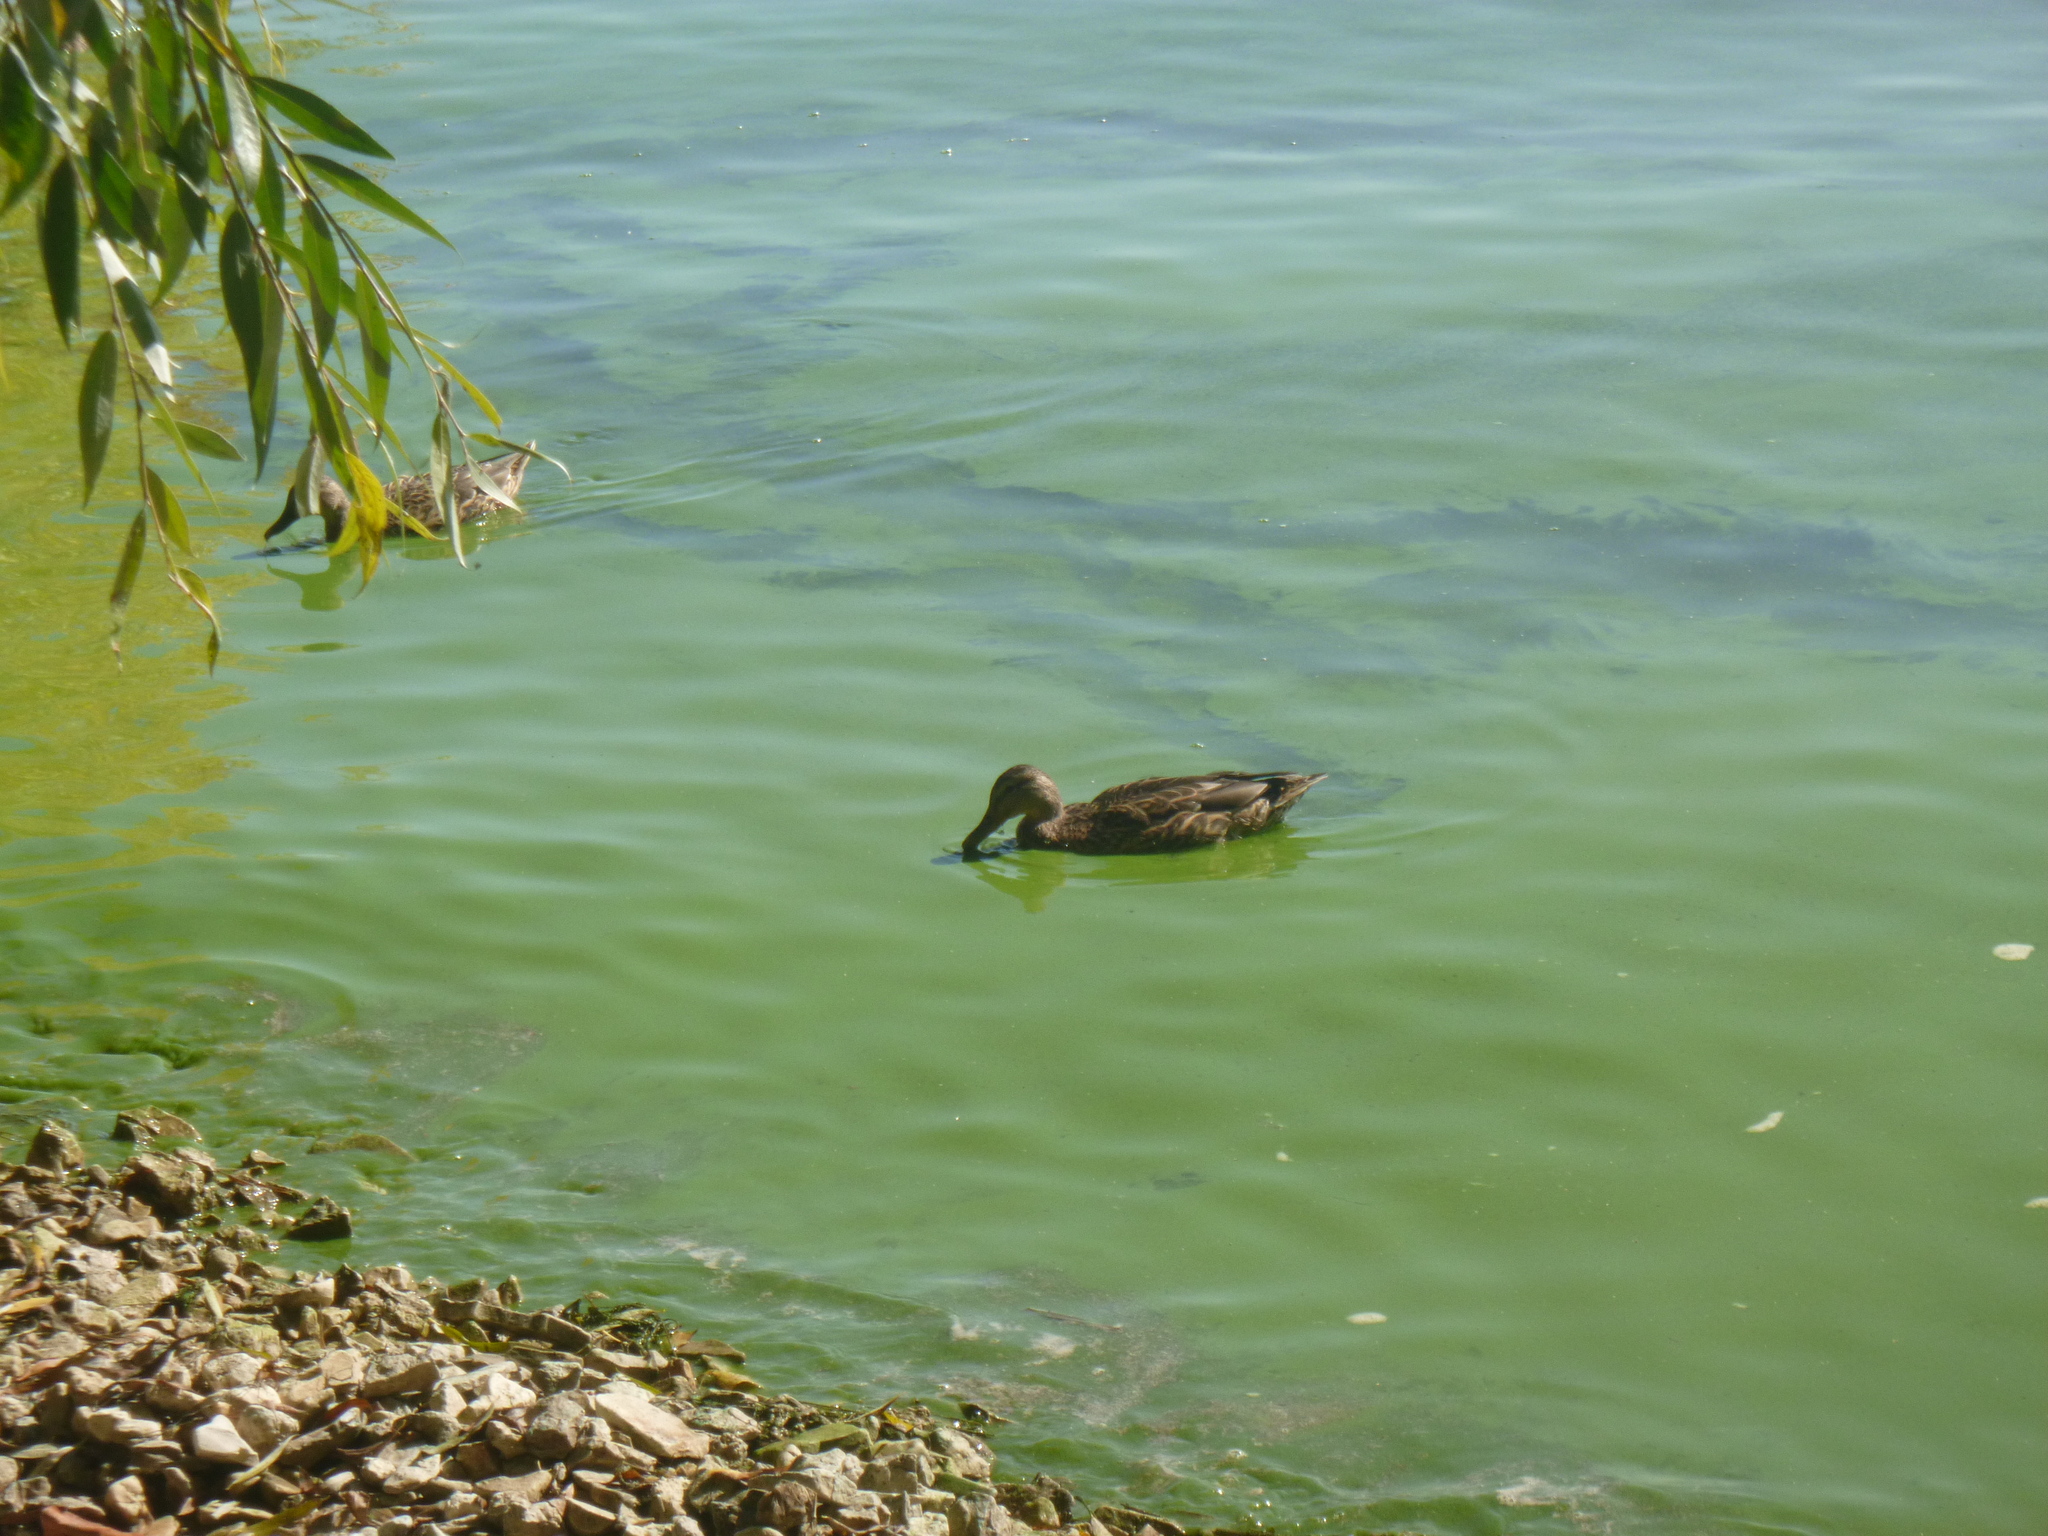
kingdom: Animalia
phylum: Chordata
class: Aves
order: Anseriformes
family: Anatidae
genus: Anas
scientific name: Anas platyrhynchos
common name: Mallard
